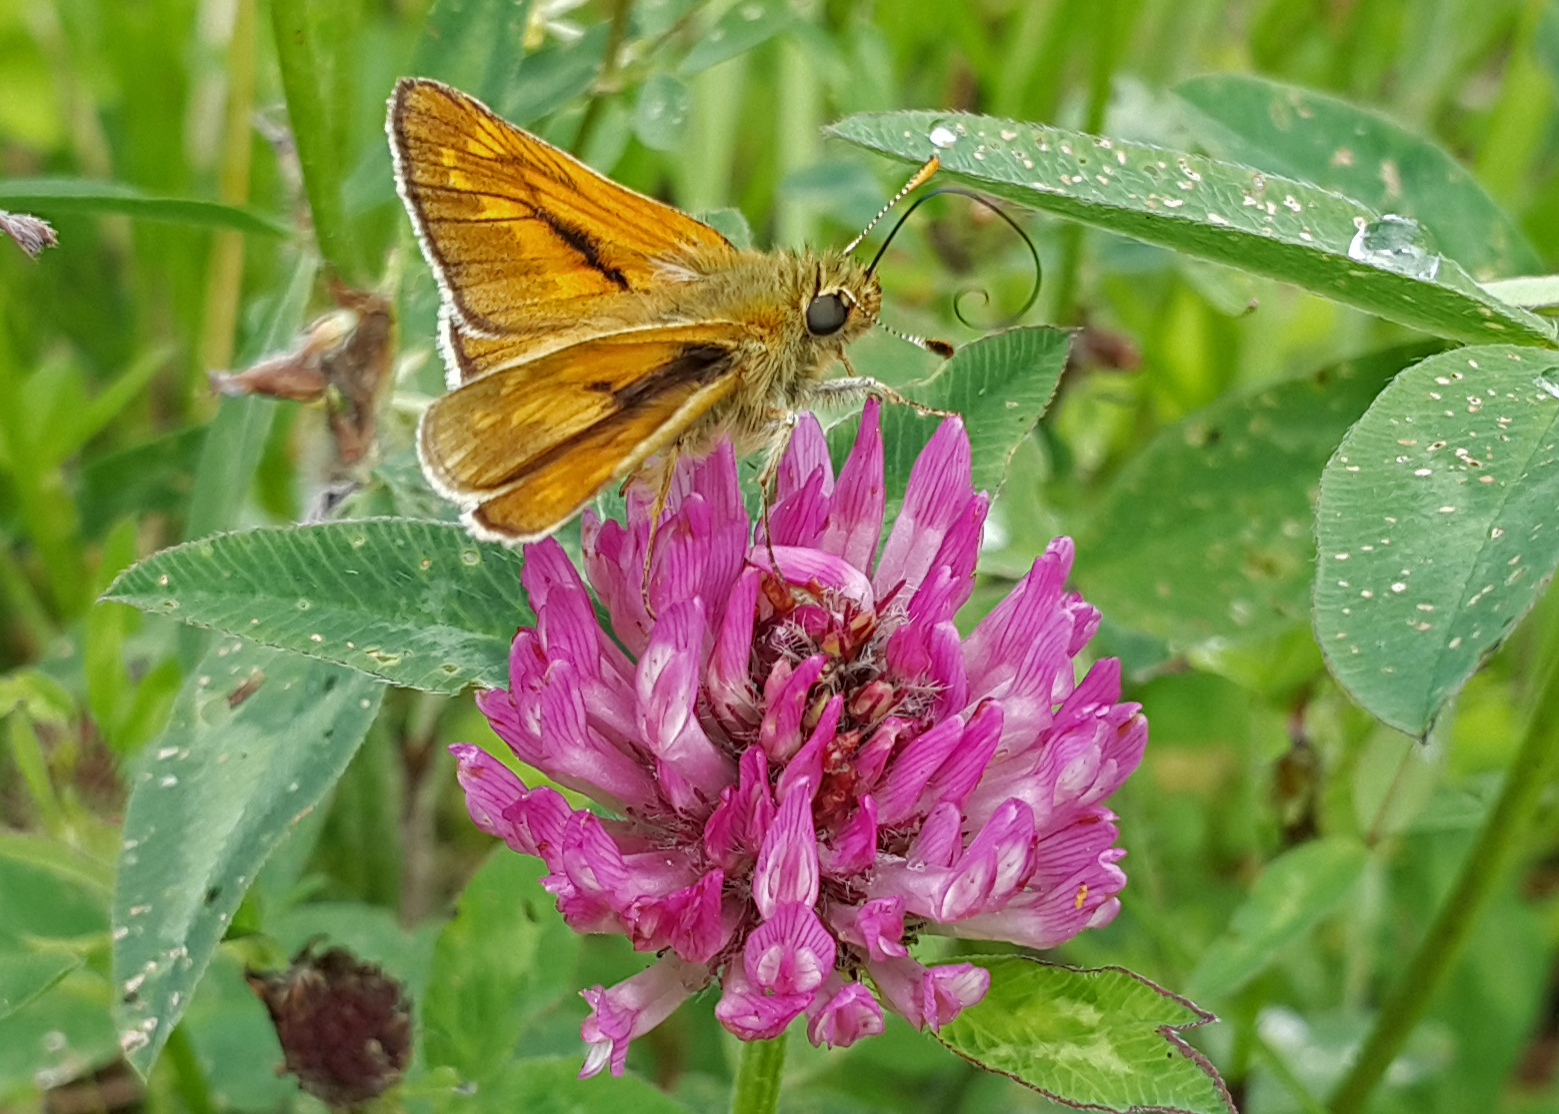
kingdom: Animalia
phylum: Arthropoda
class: Insecta
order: Lepidoptera
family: Hesperiidae
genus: Ochlodes
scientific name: Ochlodes venata
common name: Large skipper
